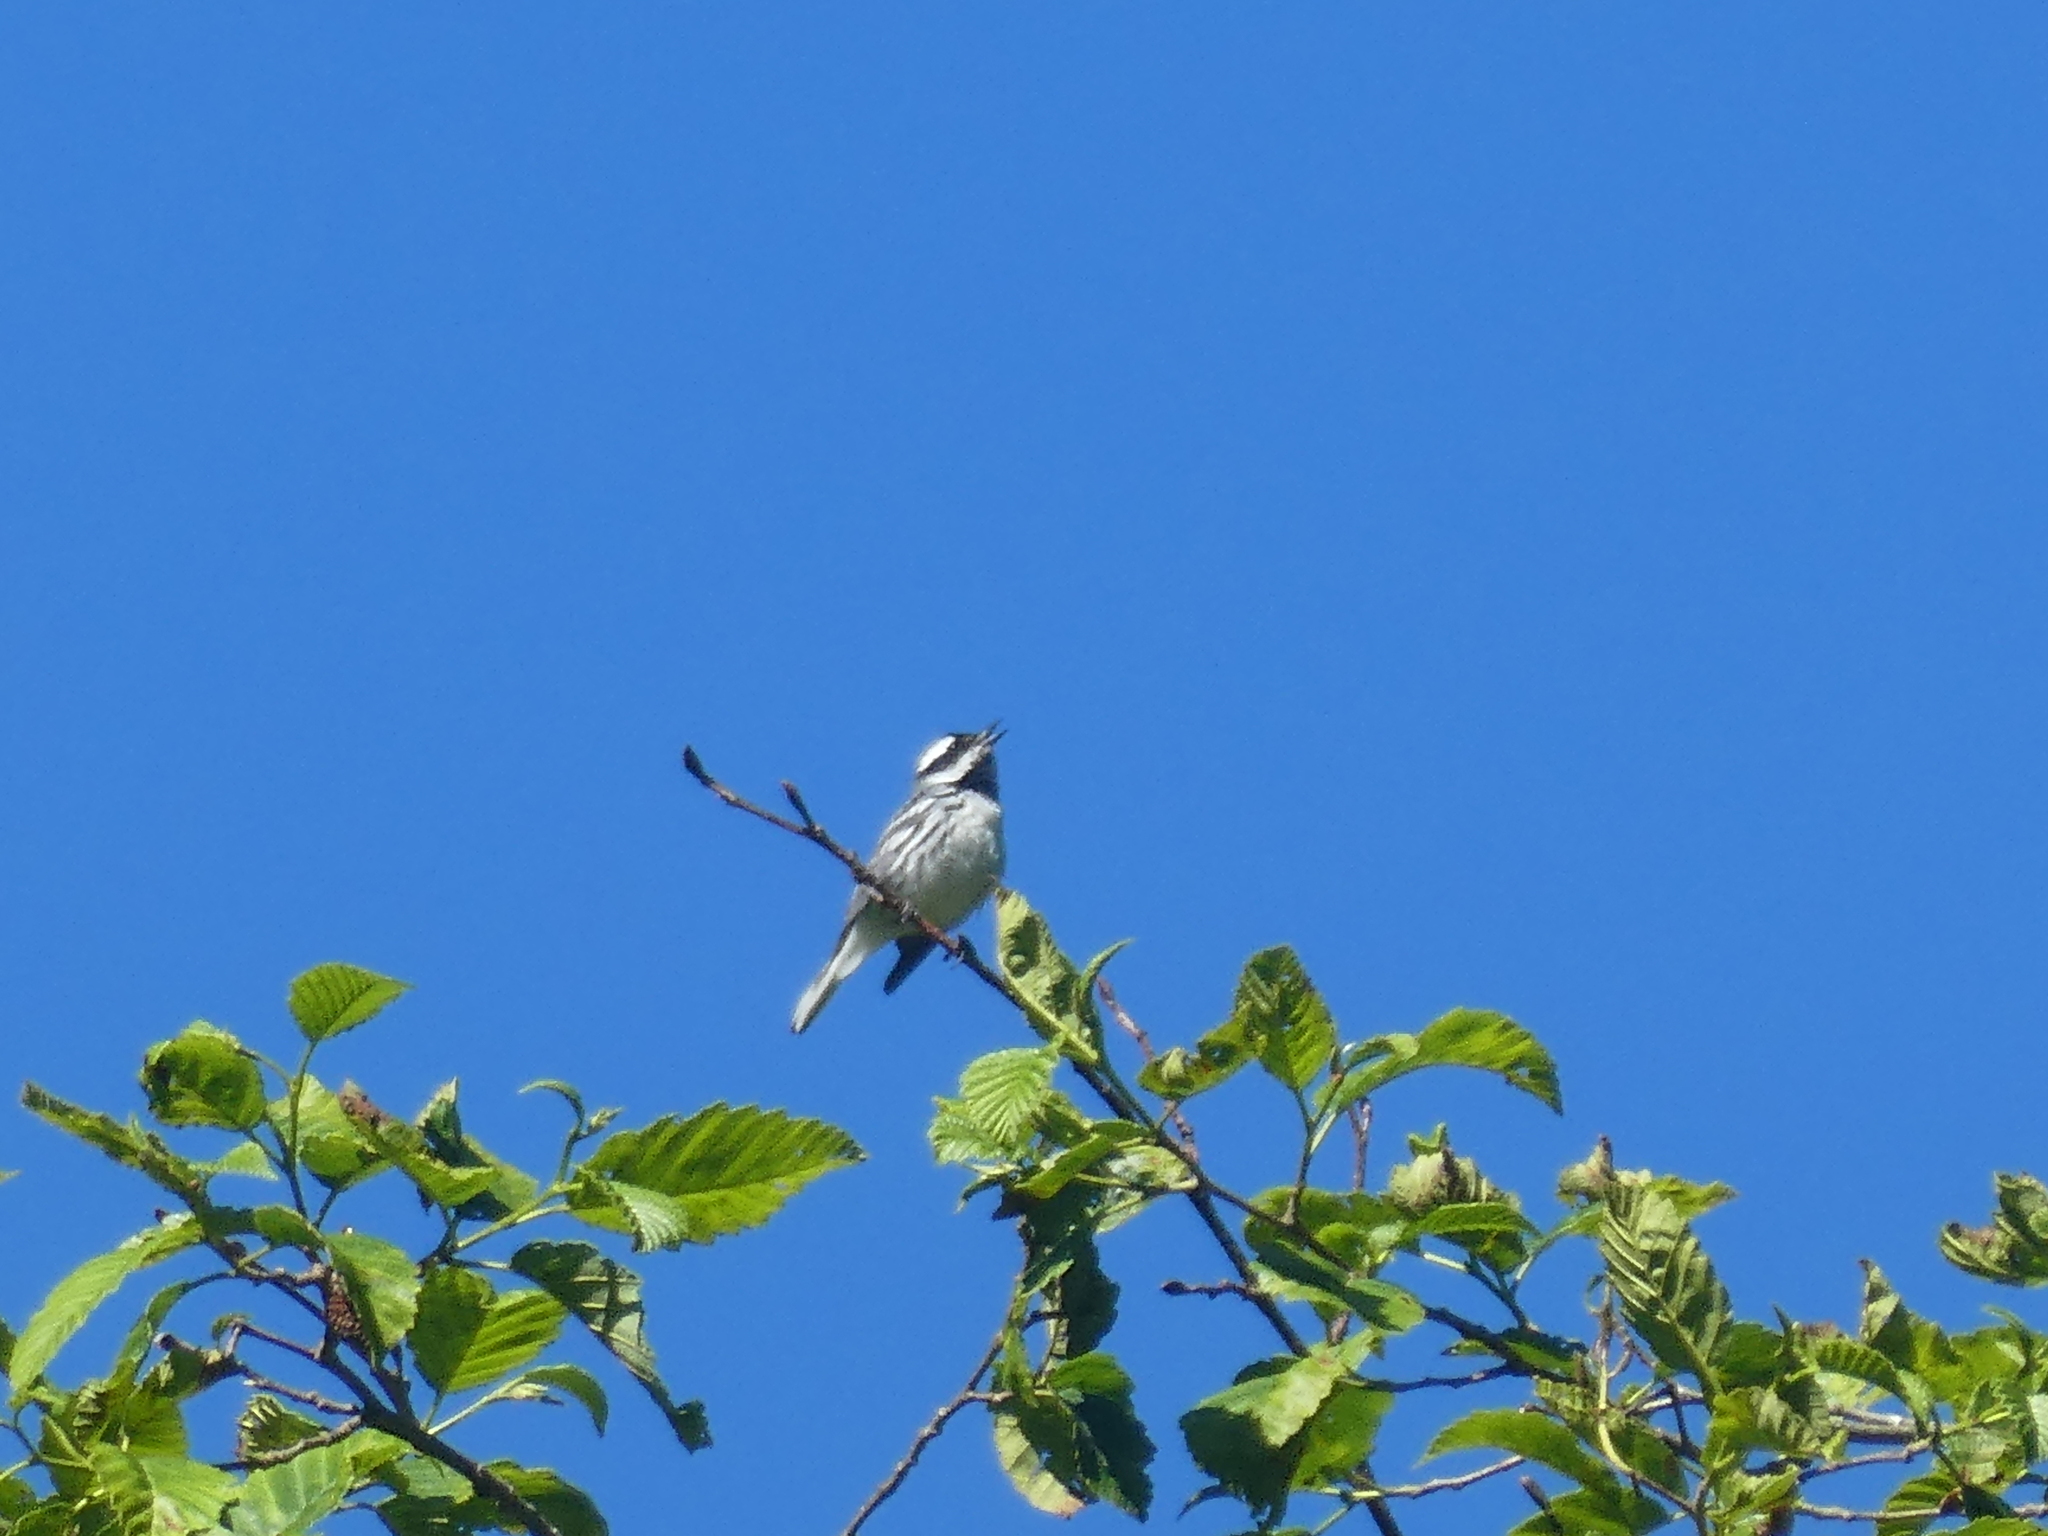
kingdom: Animalia
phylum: Chordata
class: Aves
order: Passeriformes
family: Parulidae
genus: Setophaga
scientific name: Setophaga nigrescens
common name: Black-throated gray warbler
